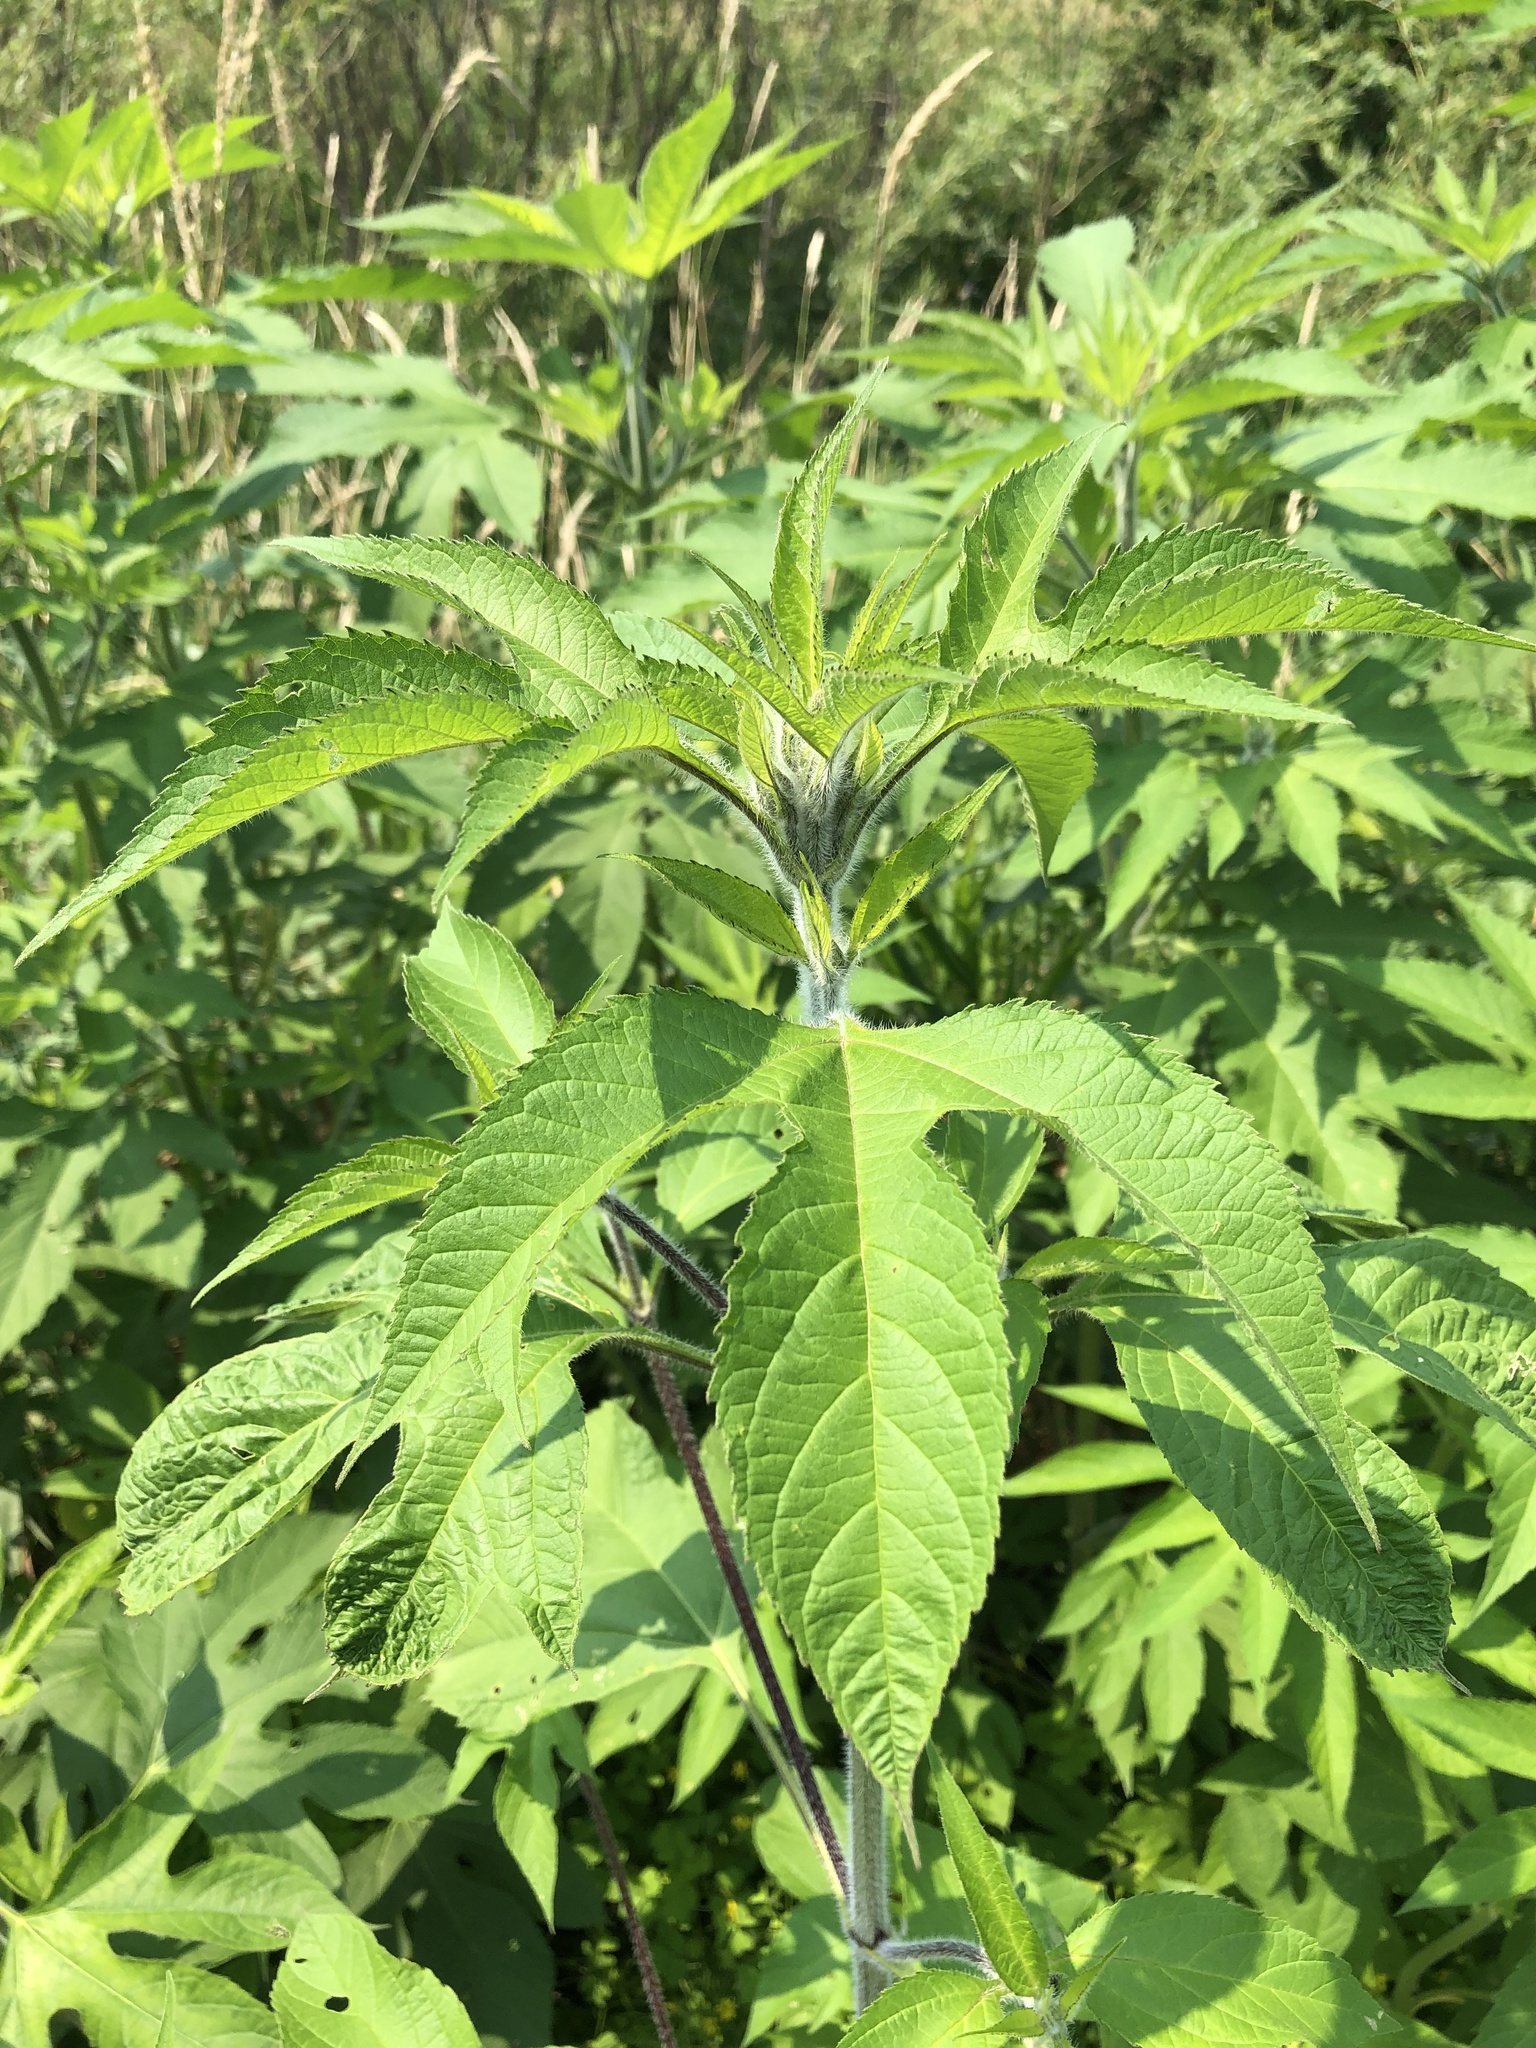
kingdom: Plantae
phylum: Tracheophyta
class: Magnoliopsida
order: Asterales
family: Asteraceae
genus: Ambrosia
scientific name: Ambrosia trifida
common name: Giant ragweed
